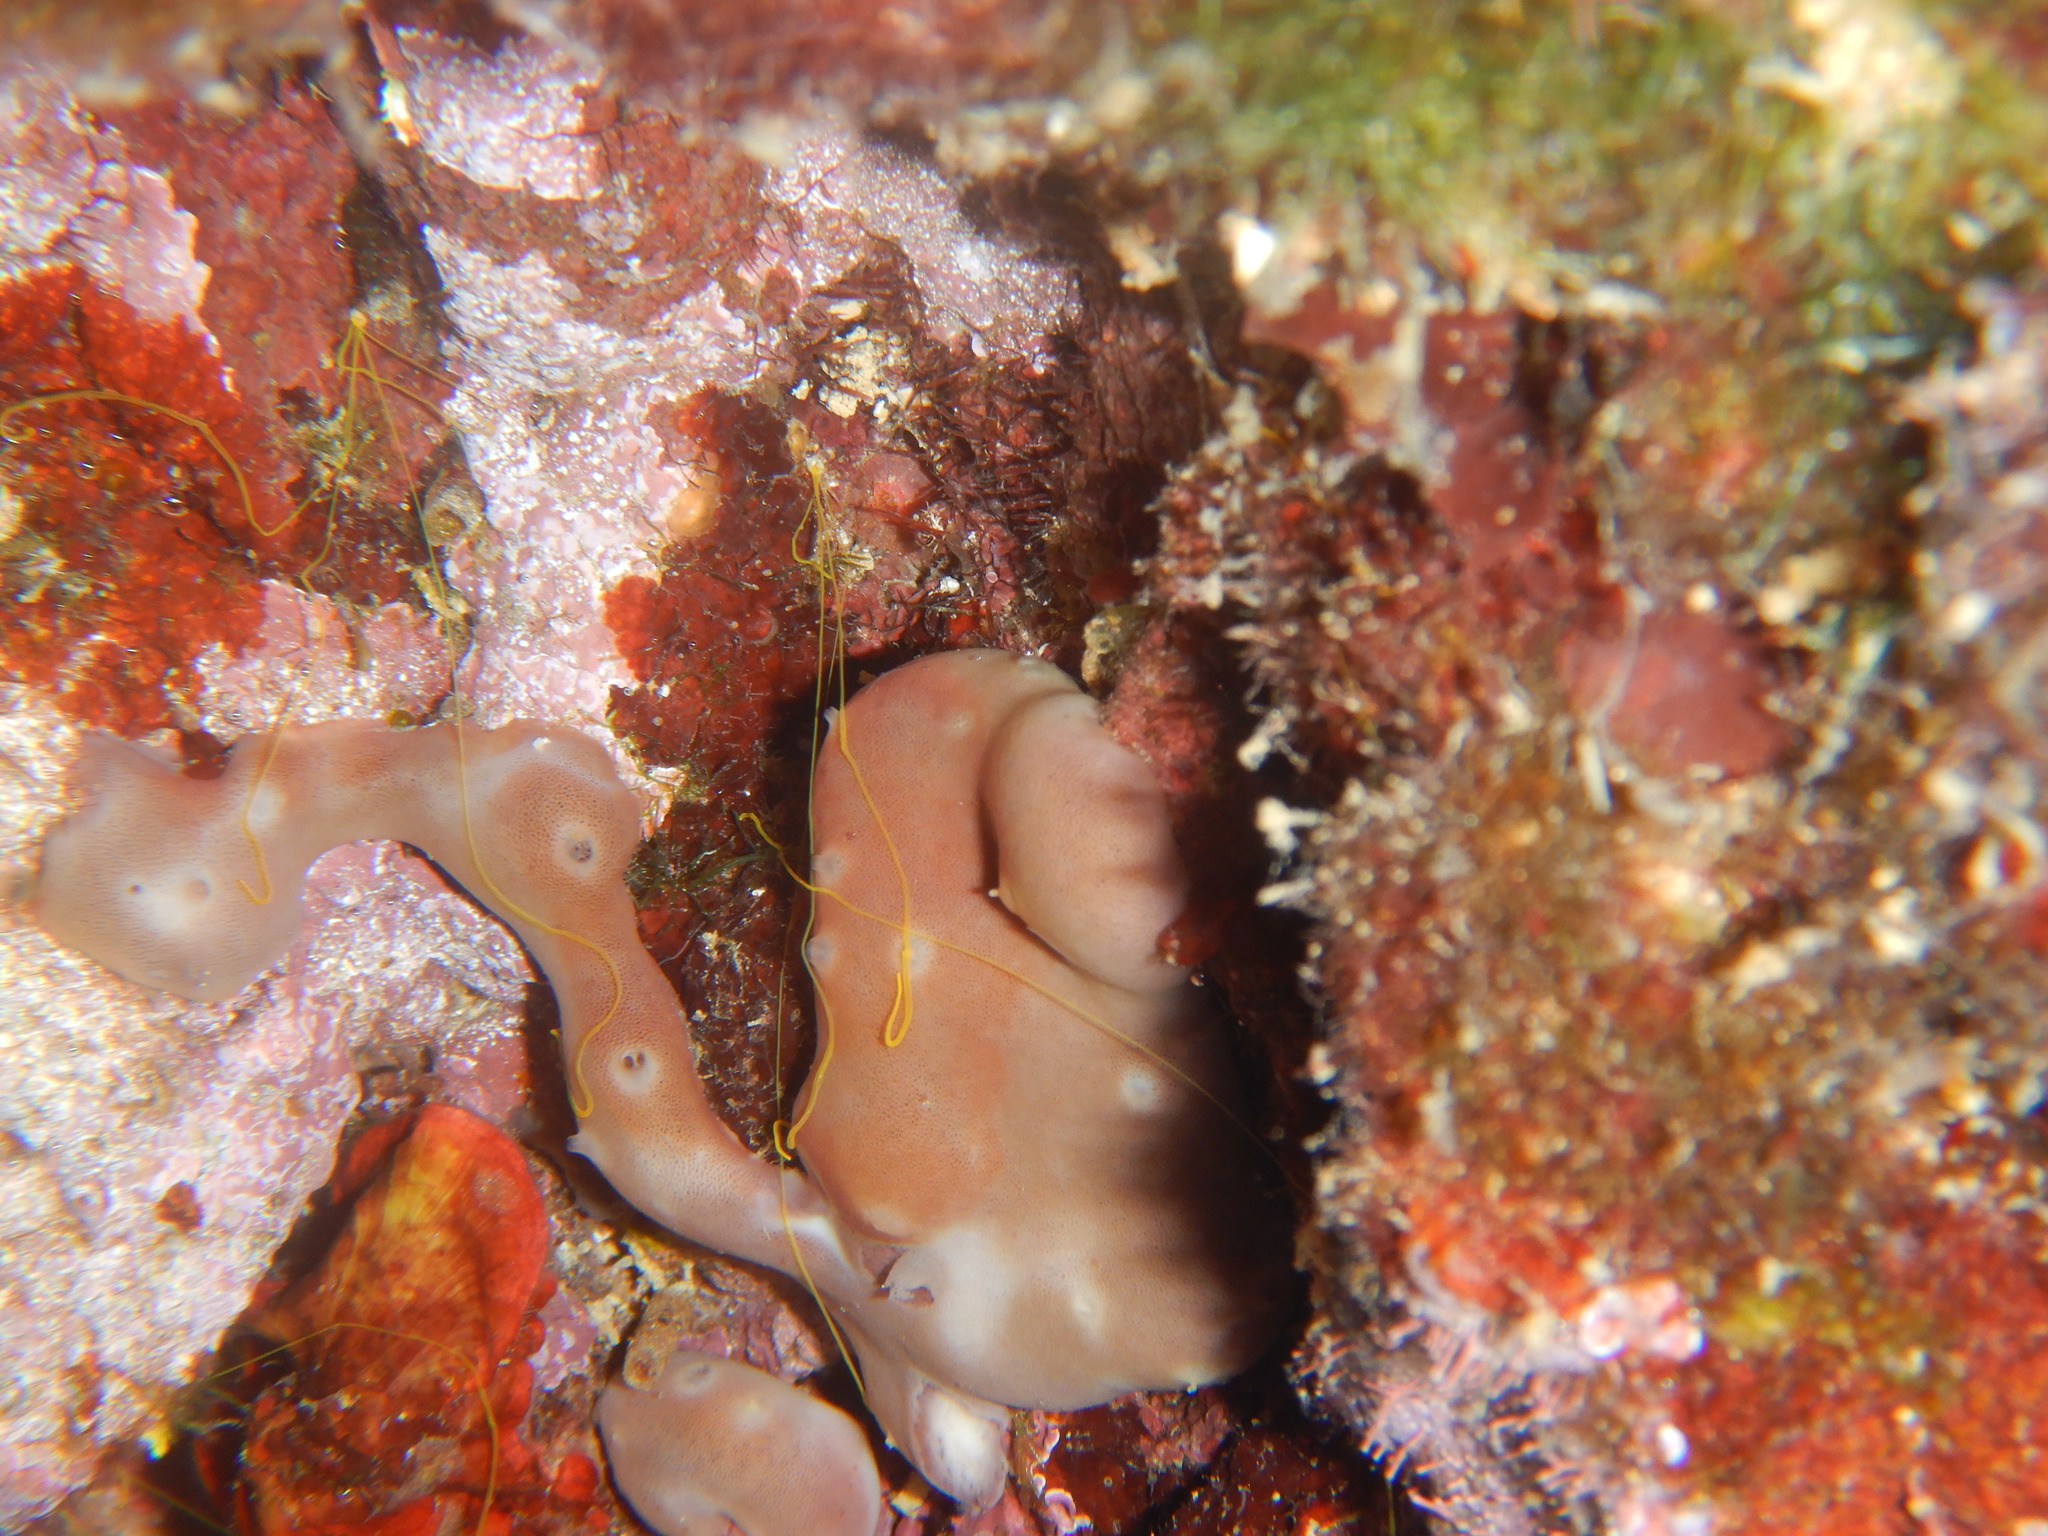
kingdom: Animalia
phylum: Porifera
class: Demospongiae
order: Chondrillida
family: Chondrillidae
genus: Chondrilla
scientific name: Chondrilla nucula
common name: Chicken liver sponge
